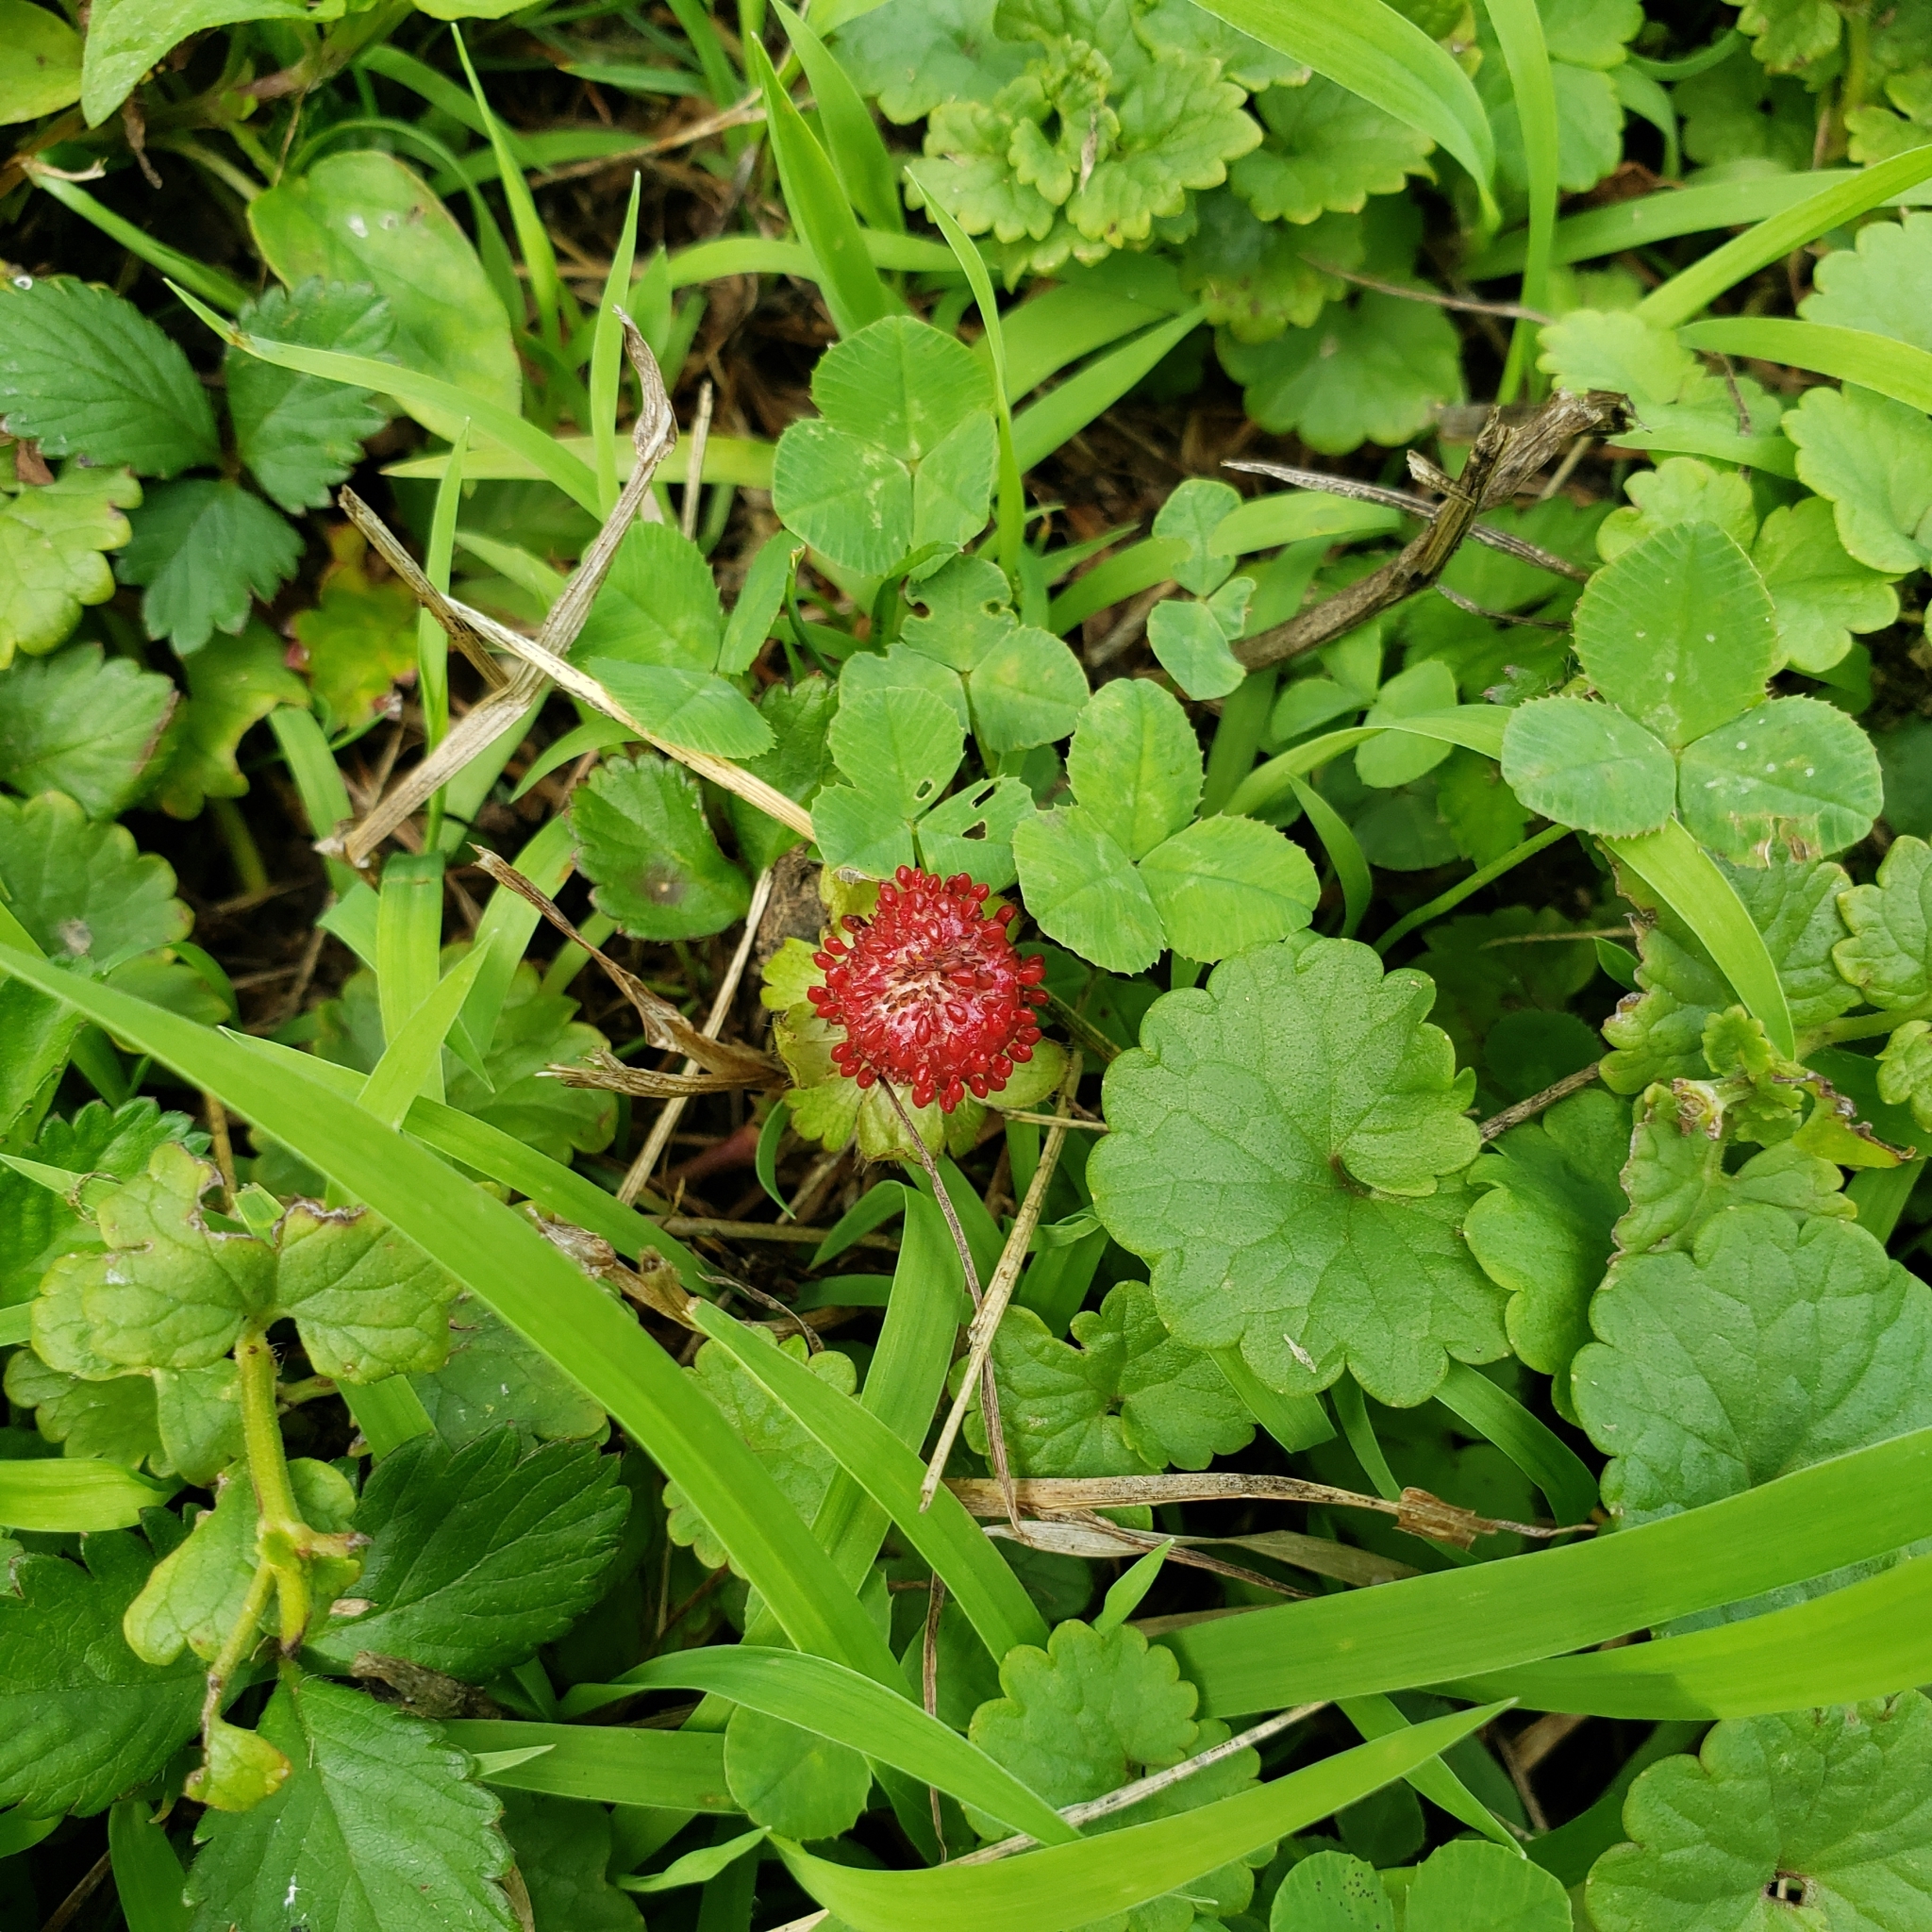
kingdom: Plantae
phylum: Tracheophyta
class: Magnoliopsida
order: Rosales
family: Rosaceae
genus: Potentilla
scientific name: Potentilla indica
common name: Yellow-flowered strawberry
